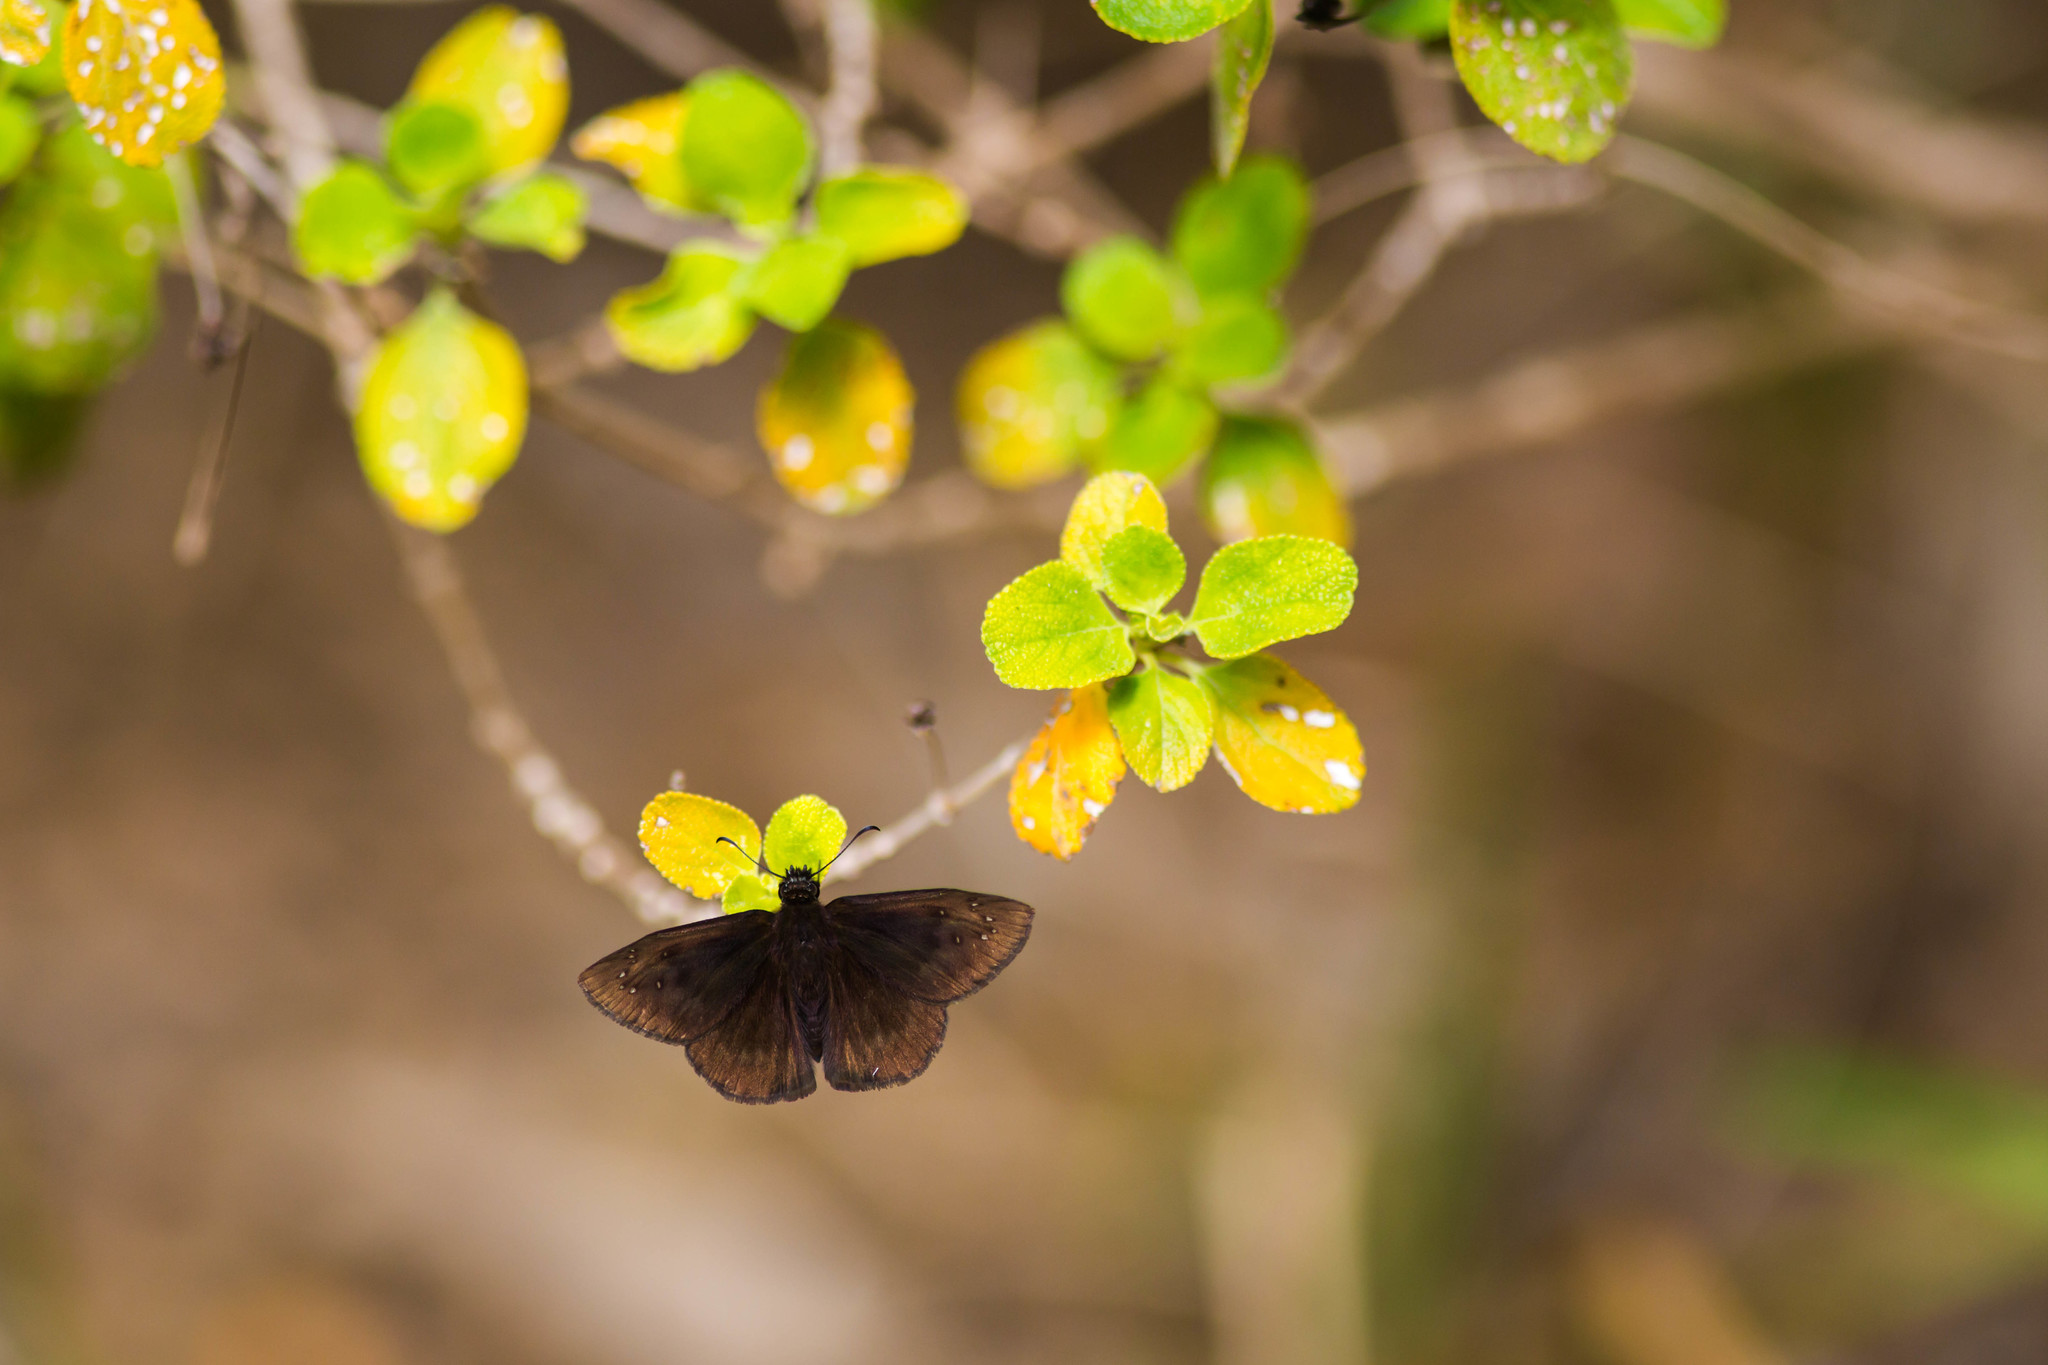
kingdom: Animalia
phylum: Arthropoda
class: Insecta
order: Lepidoptera
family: Hesperiidae
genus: Ephyriades
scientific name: Ephyriades brunnea
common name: Florida duskywing
